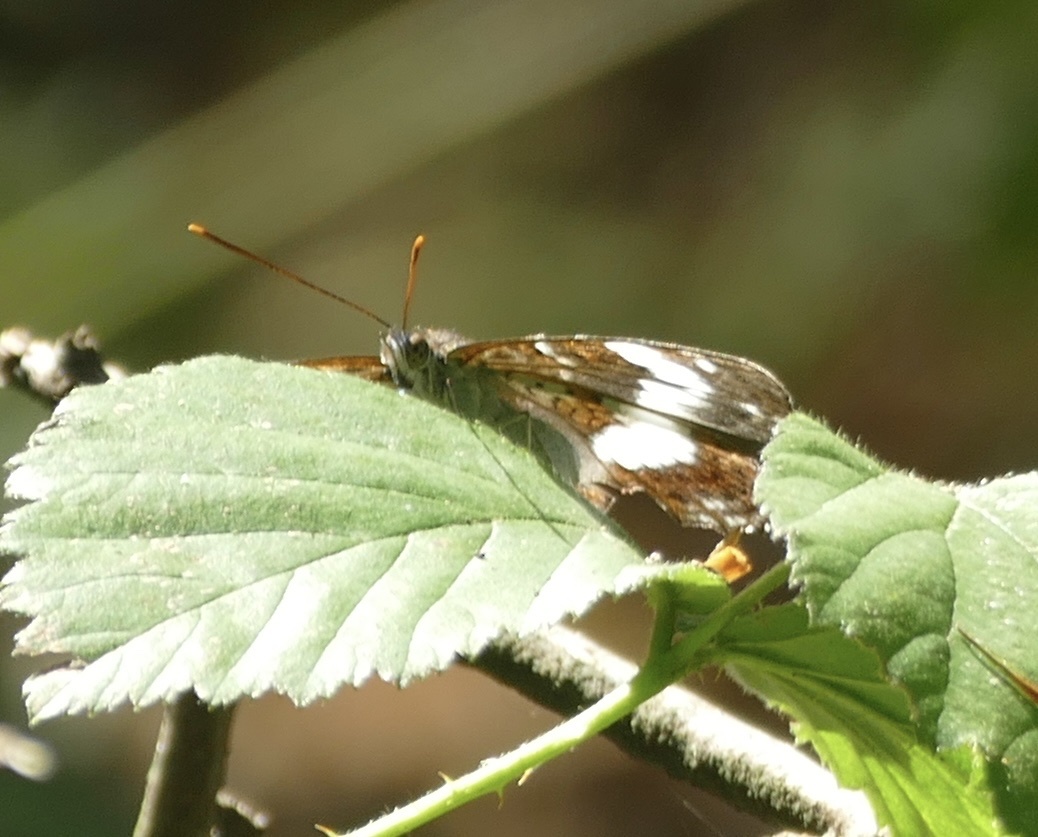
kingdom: Animalia
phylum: Arthropoda
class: Insecta
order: Lepidoptera
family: Nymphalidae
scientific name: Nymphalidae
